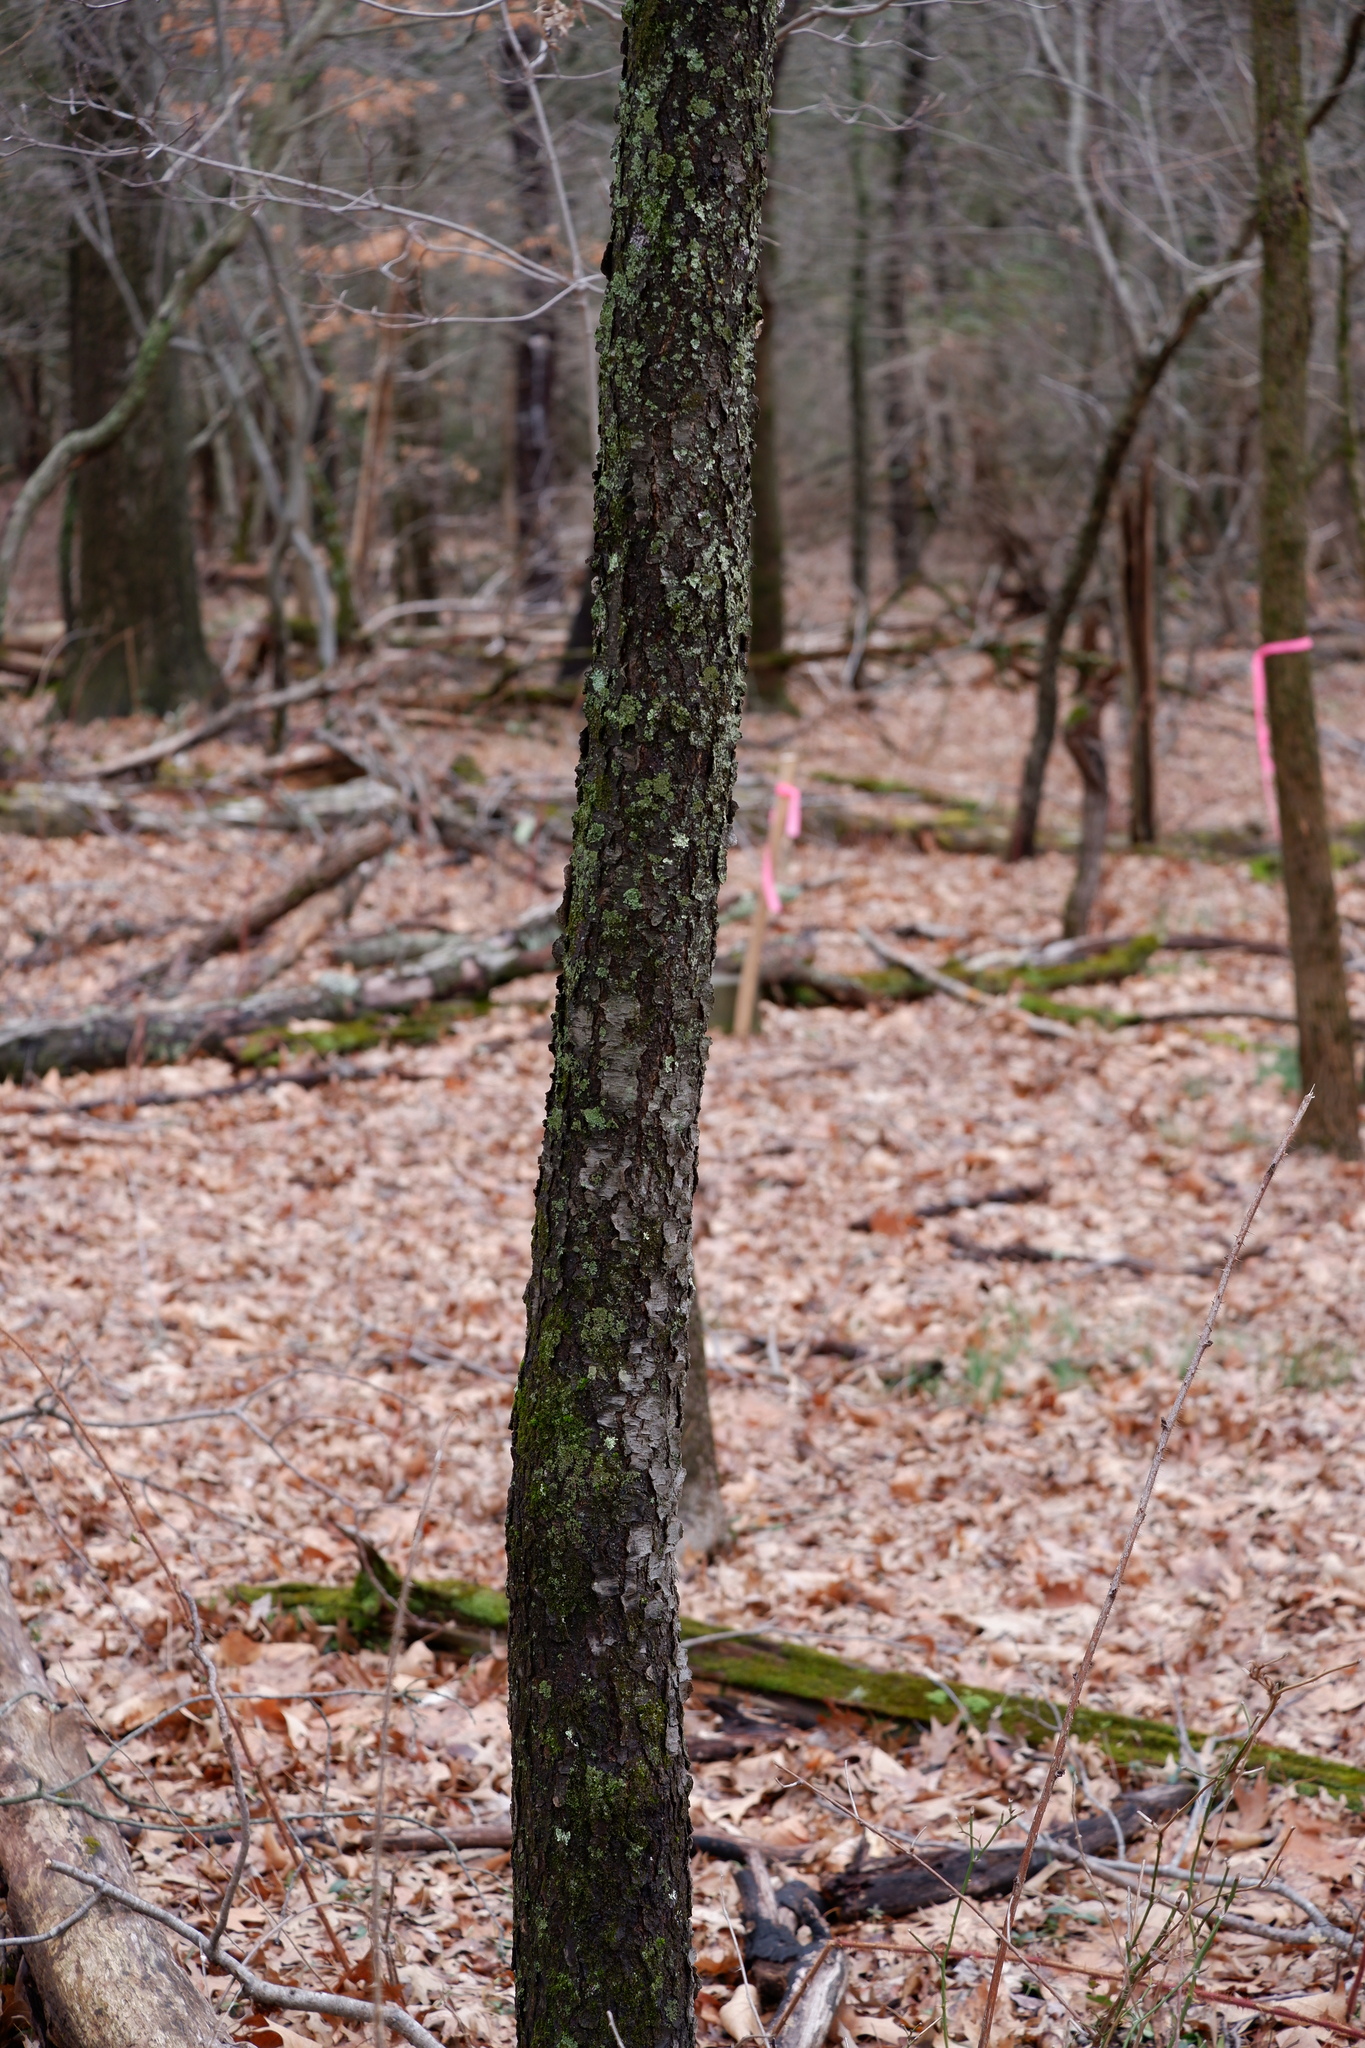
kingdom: Plantae
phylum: Tracheophyta
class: Magnoliopsida
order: Rosales
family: Rosaceae
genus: Prunus
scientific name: Prunus serotina
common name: Black cherry
